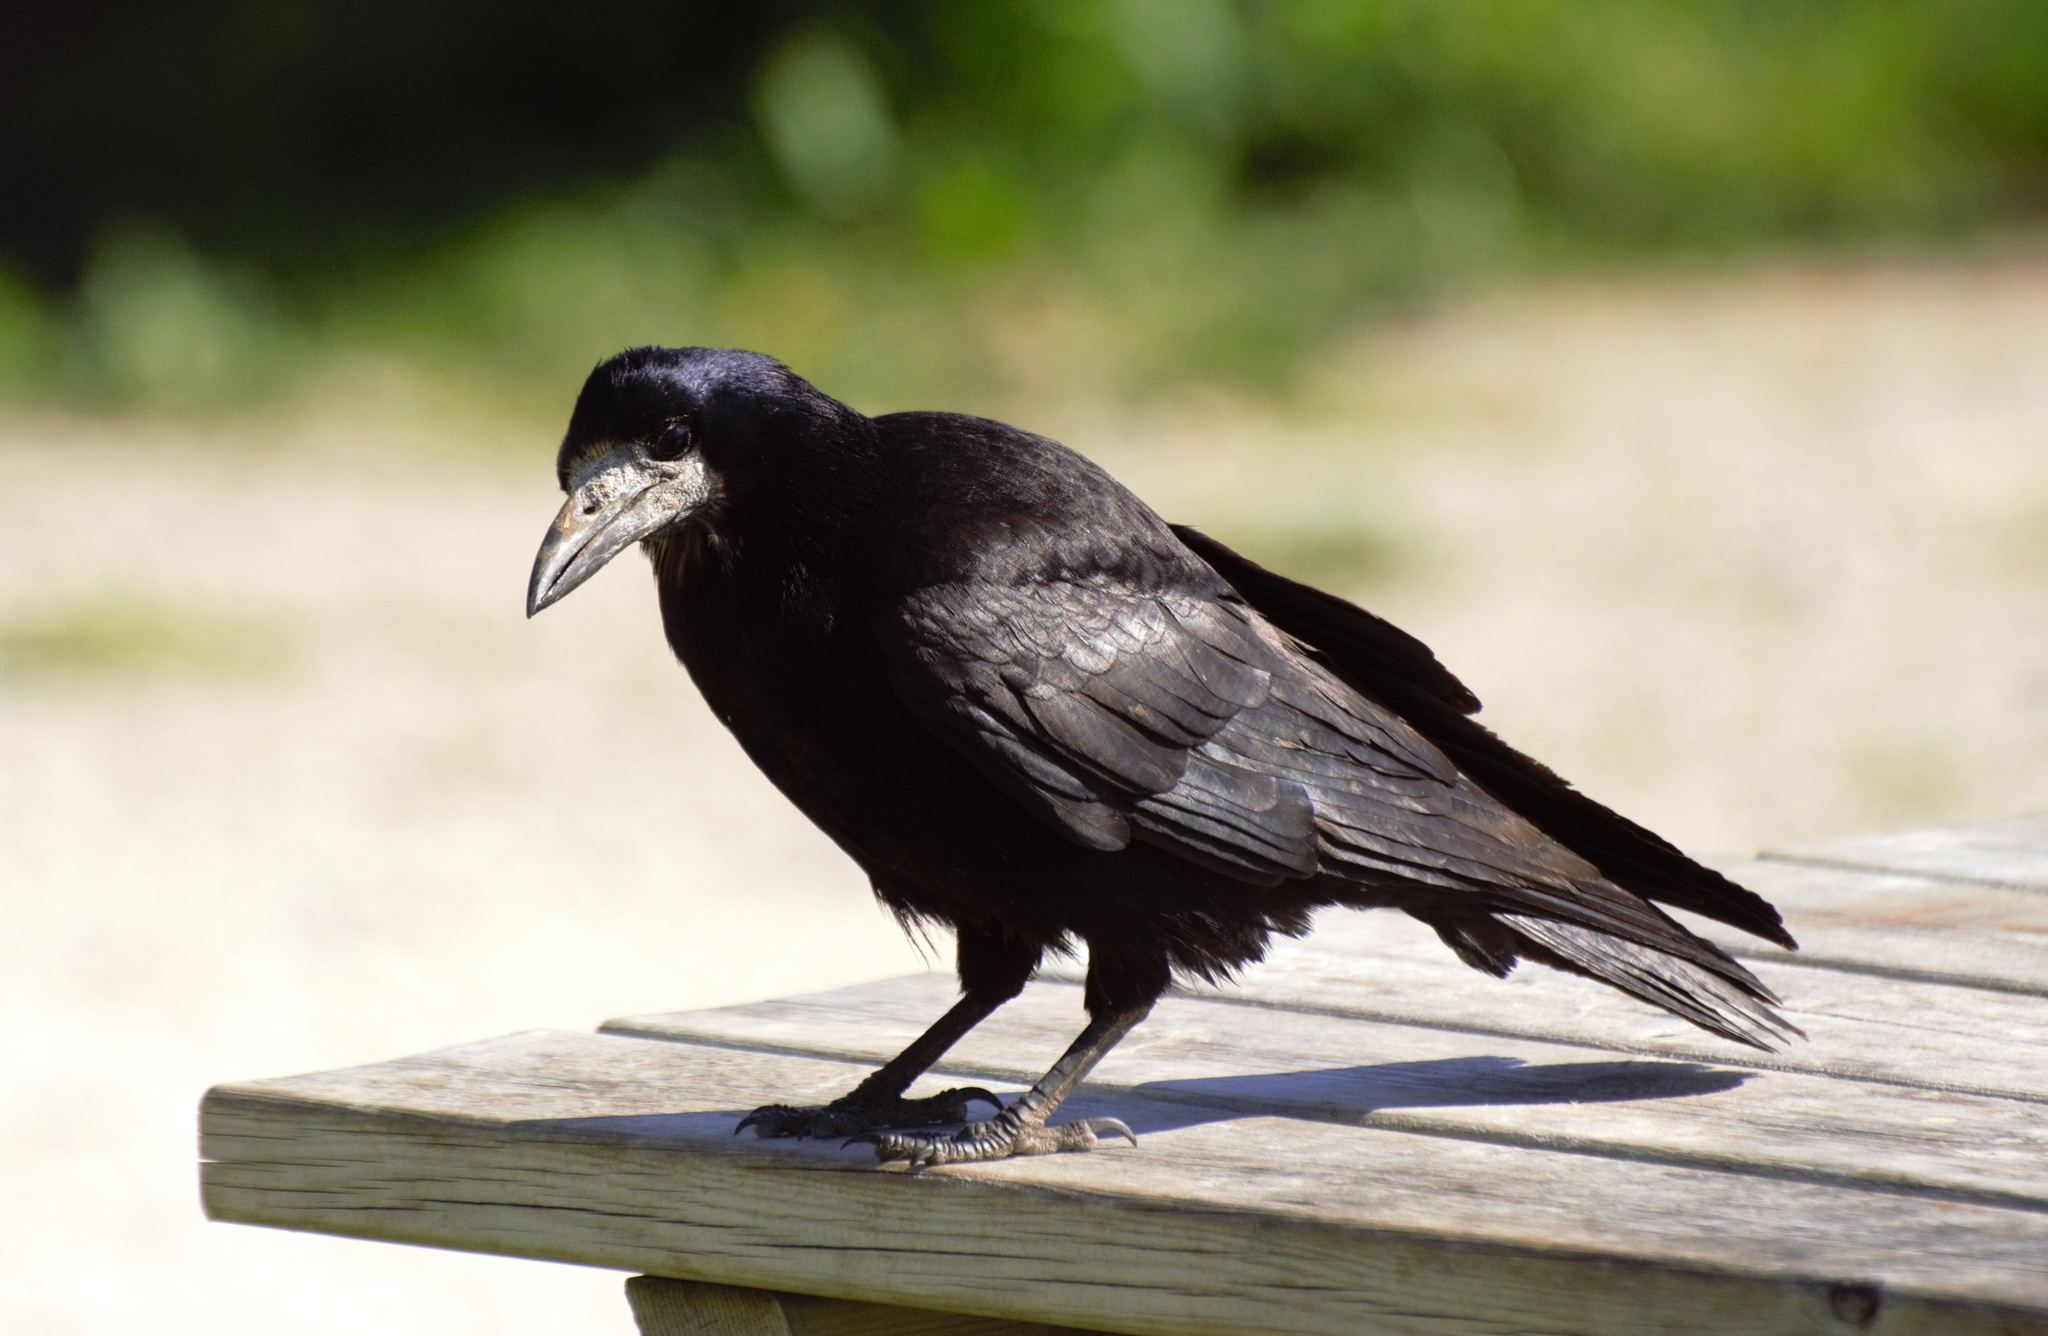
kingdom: Animalia
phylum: Chordata
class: Aves
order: Passeriformes
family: Corvidae
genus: Corvus
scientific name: Corvus frugilegus
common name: Rook
